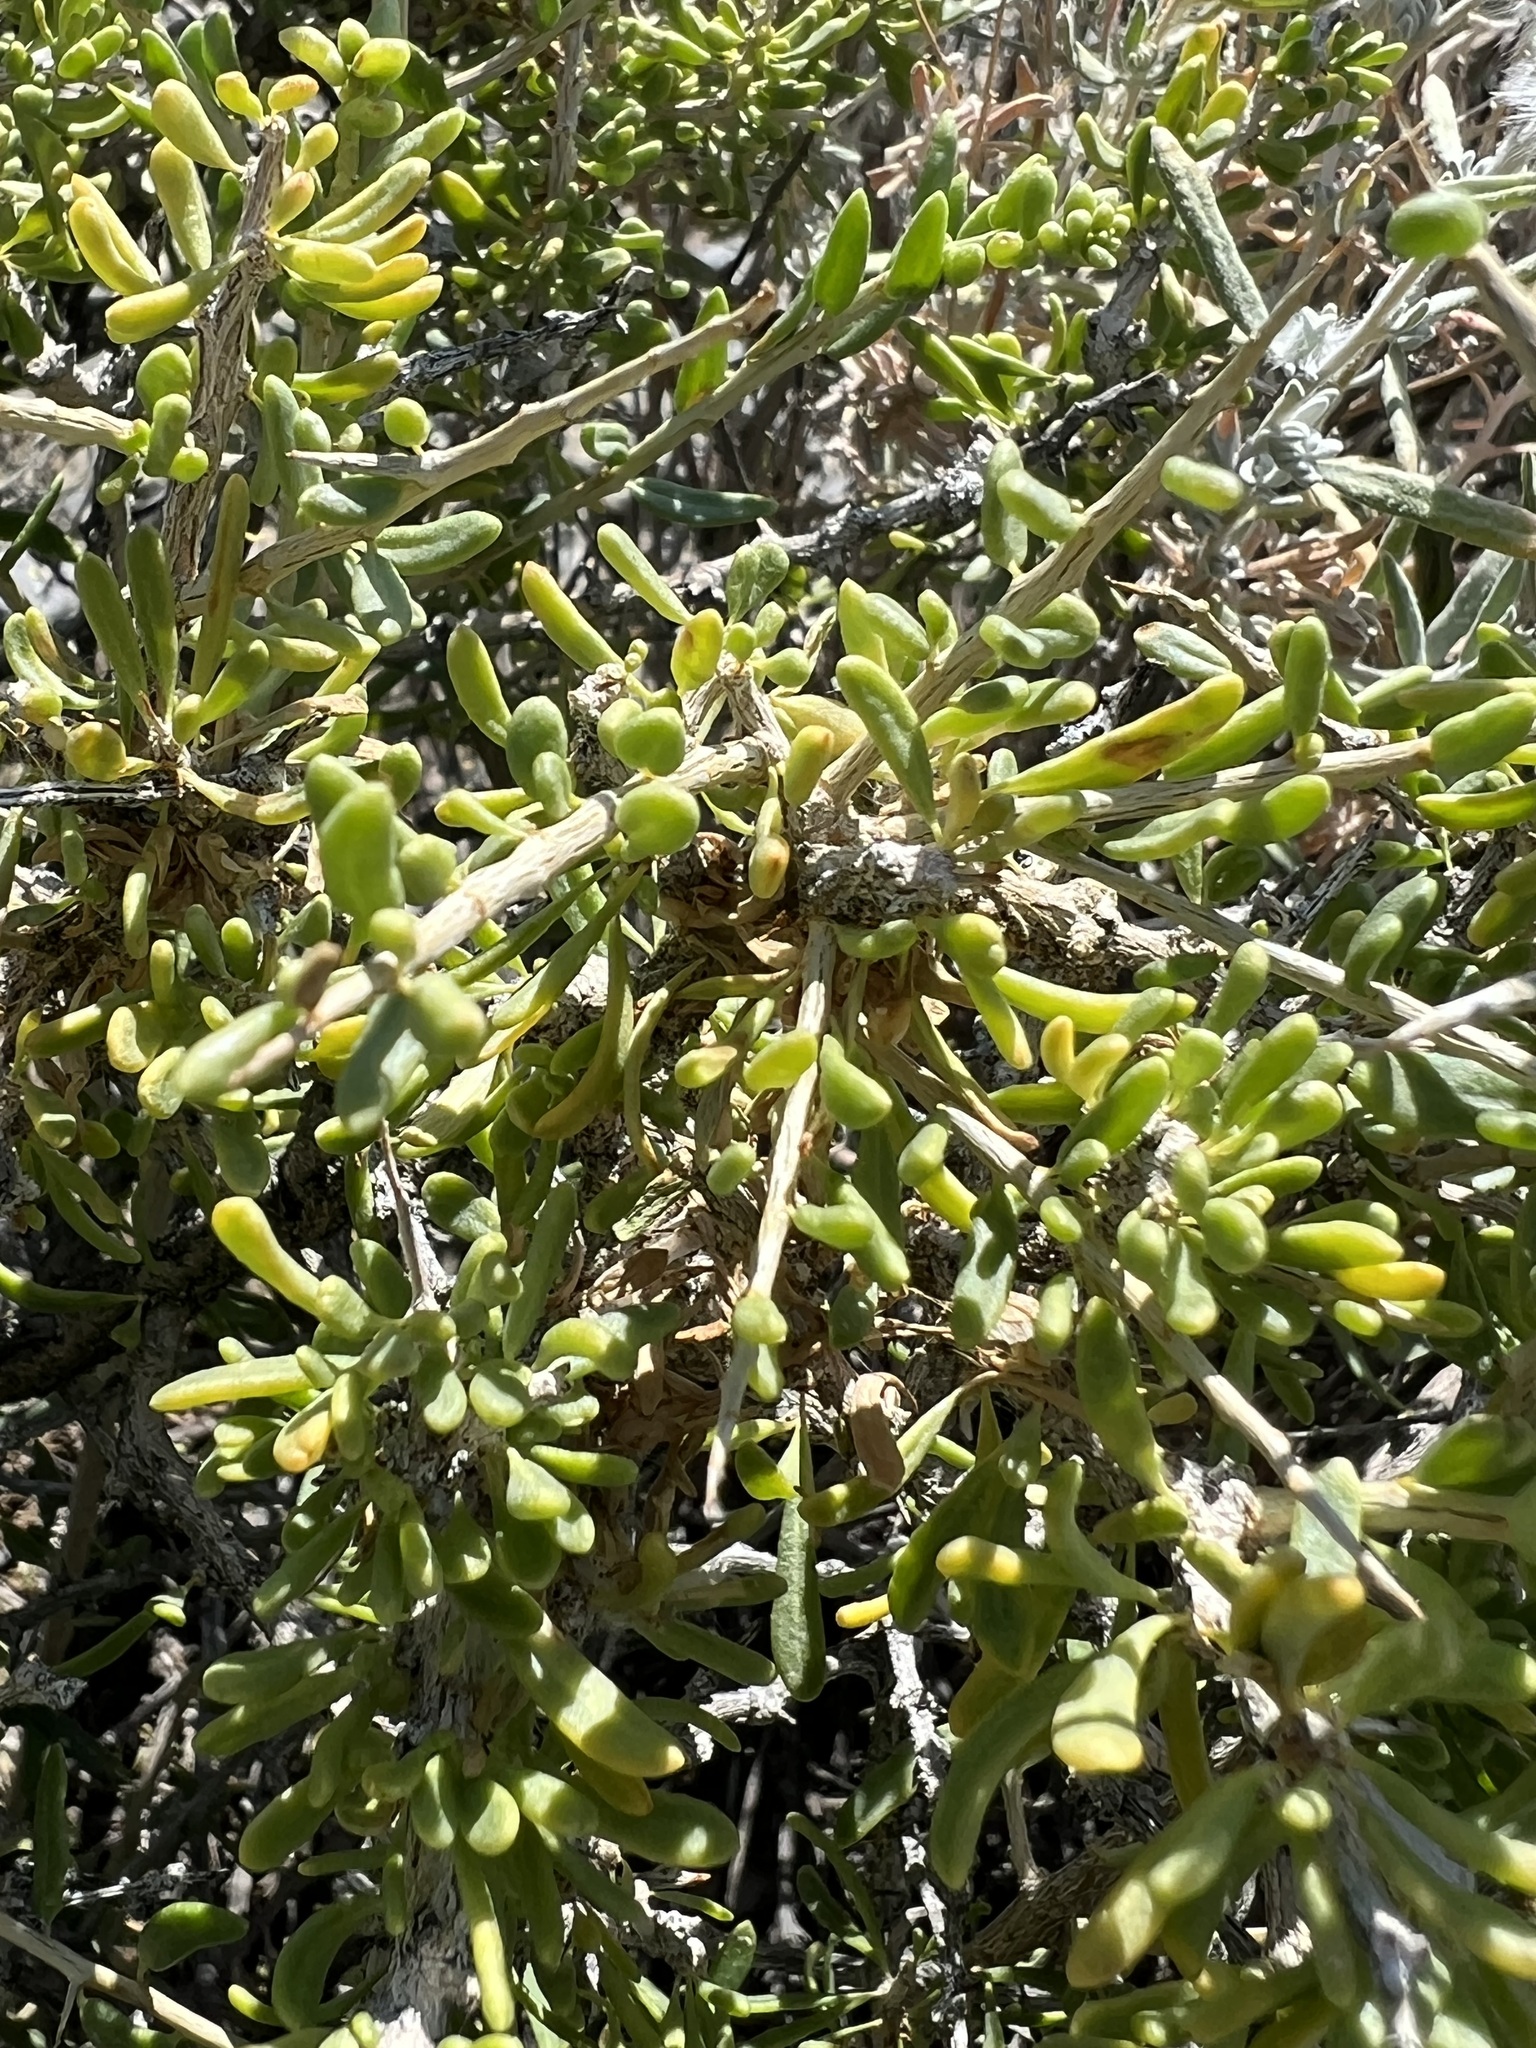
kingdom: Plantae
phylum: Tracheophyta
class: Magnoliopsida
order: Solanales
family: Solanaceae
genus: Lycium
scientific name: Lycium andersonii
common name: Water-jacket
